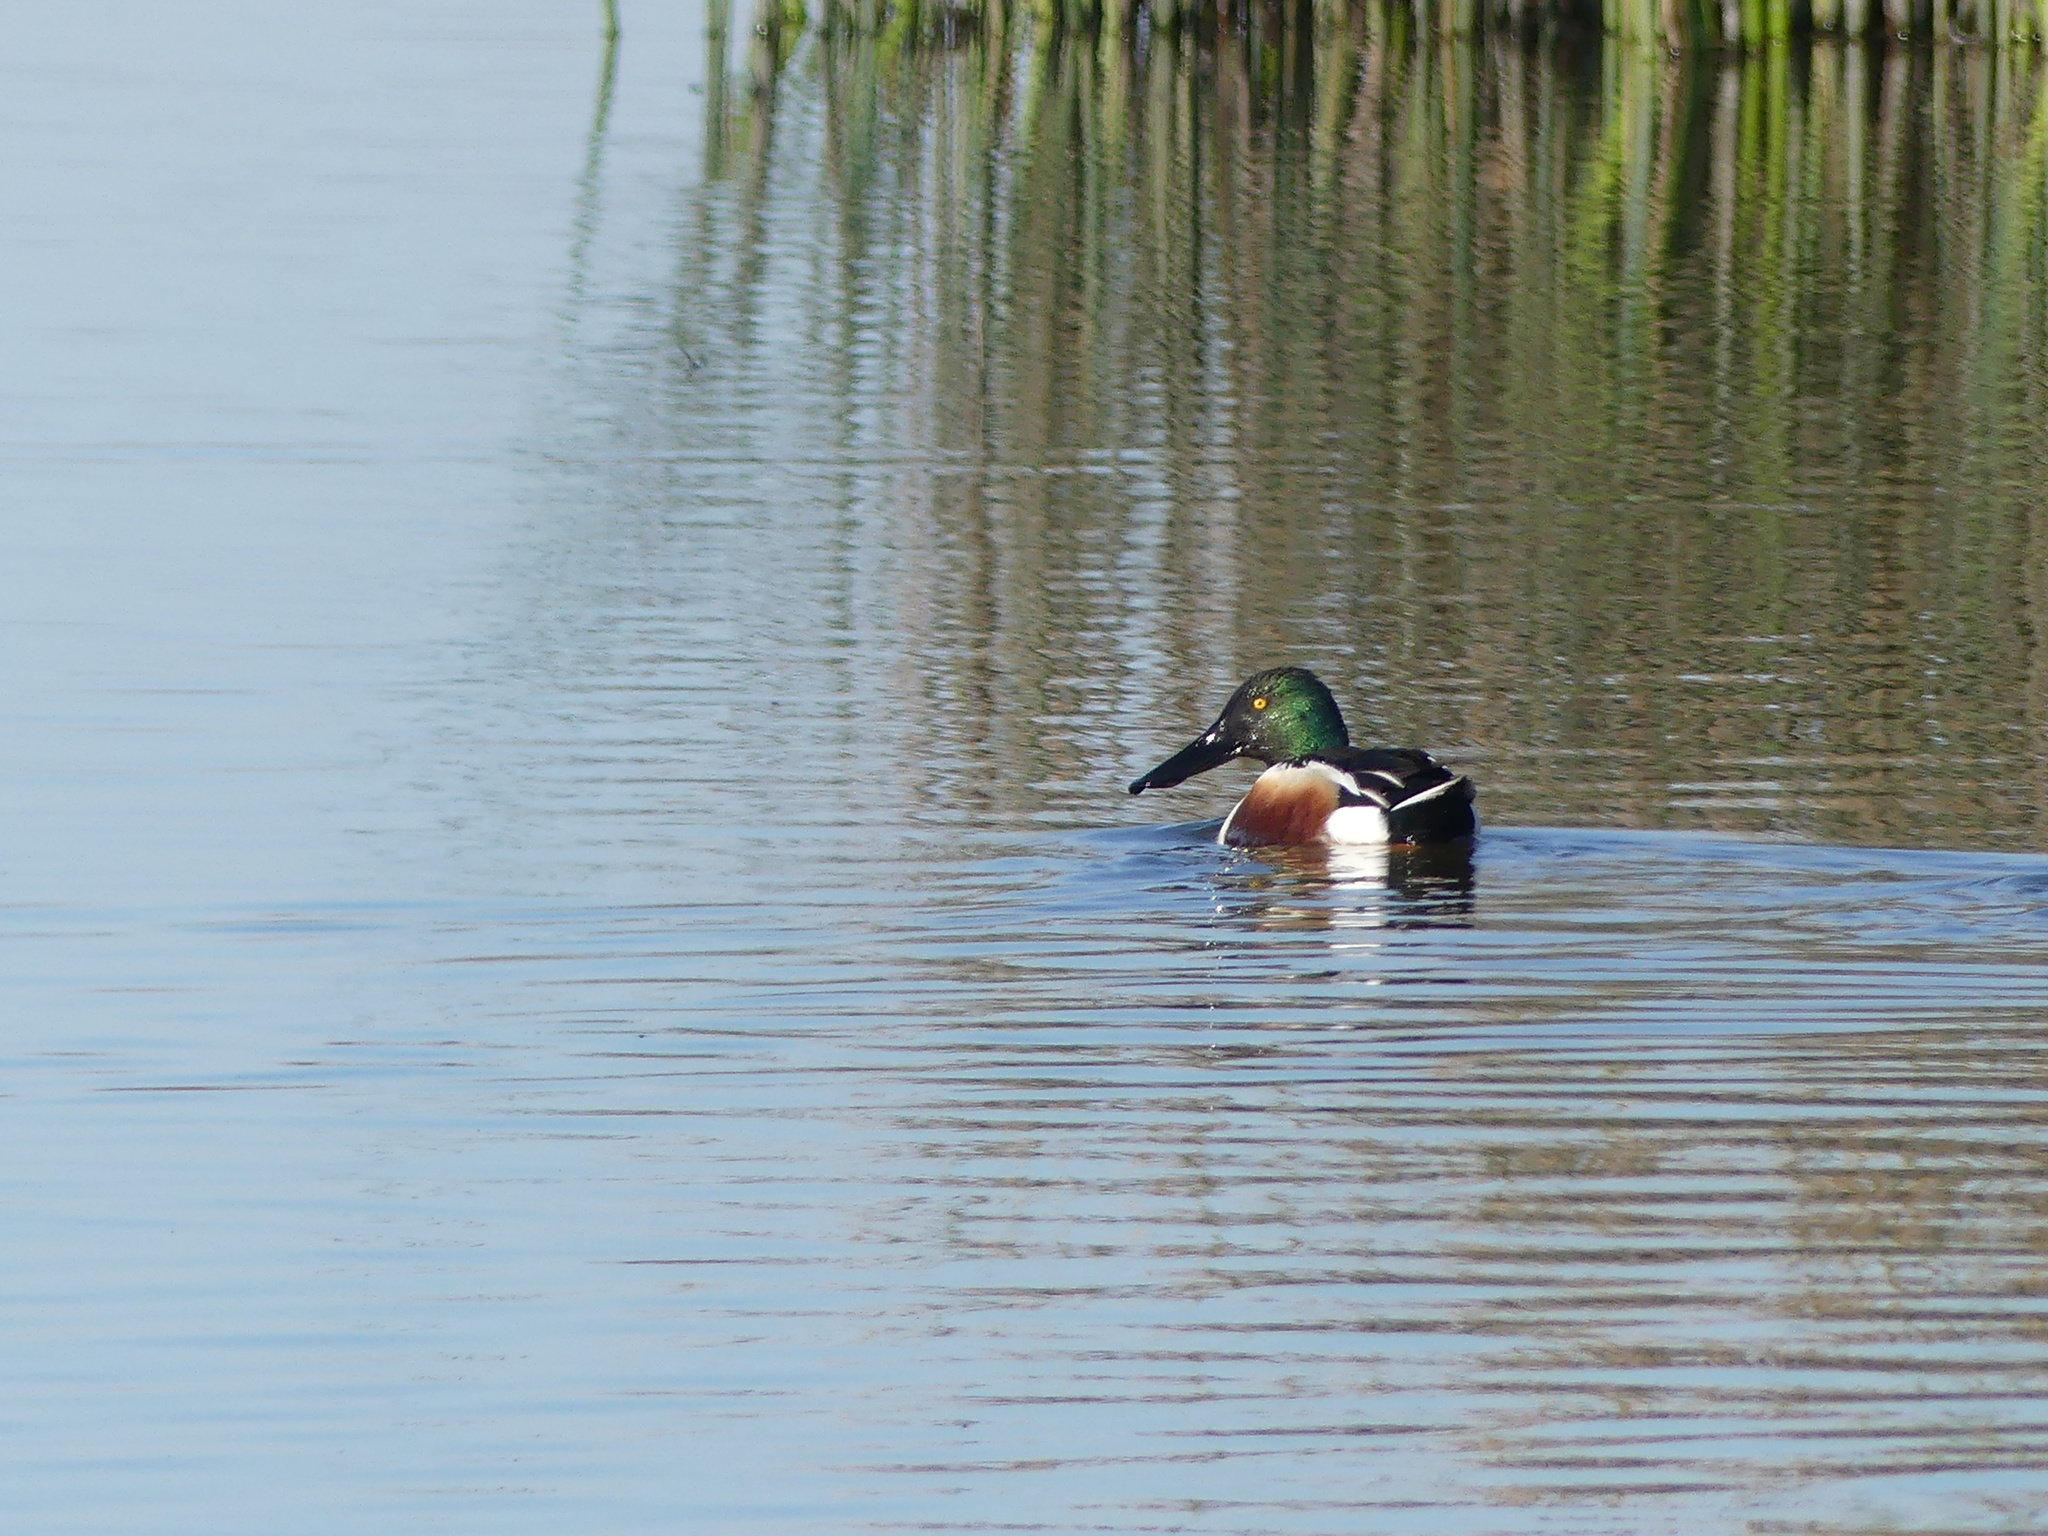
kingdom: Animalia
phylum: Chordata
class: Aves
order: Anseriformes
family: Anatidae
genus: Spatula
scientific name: Spatula clypeata
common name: Northern shoveler
